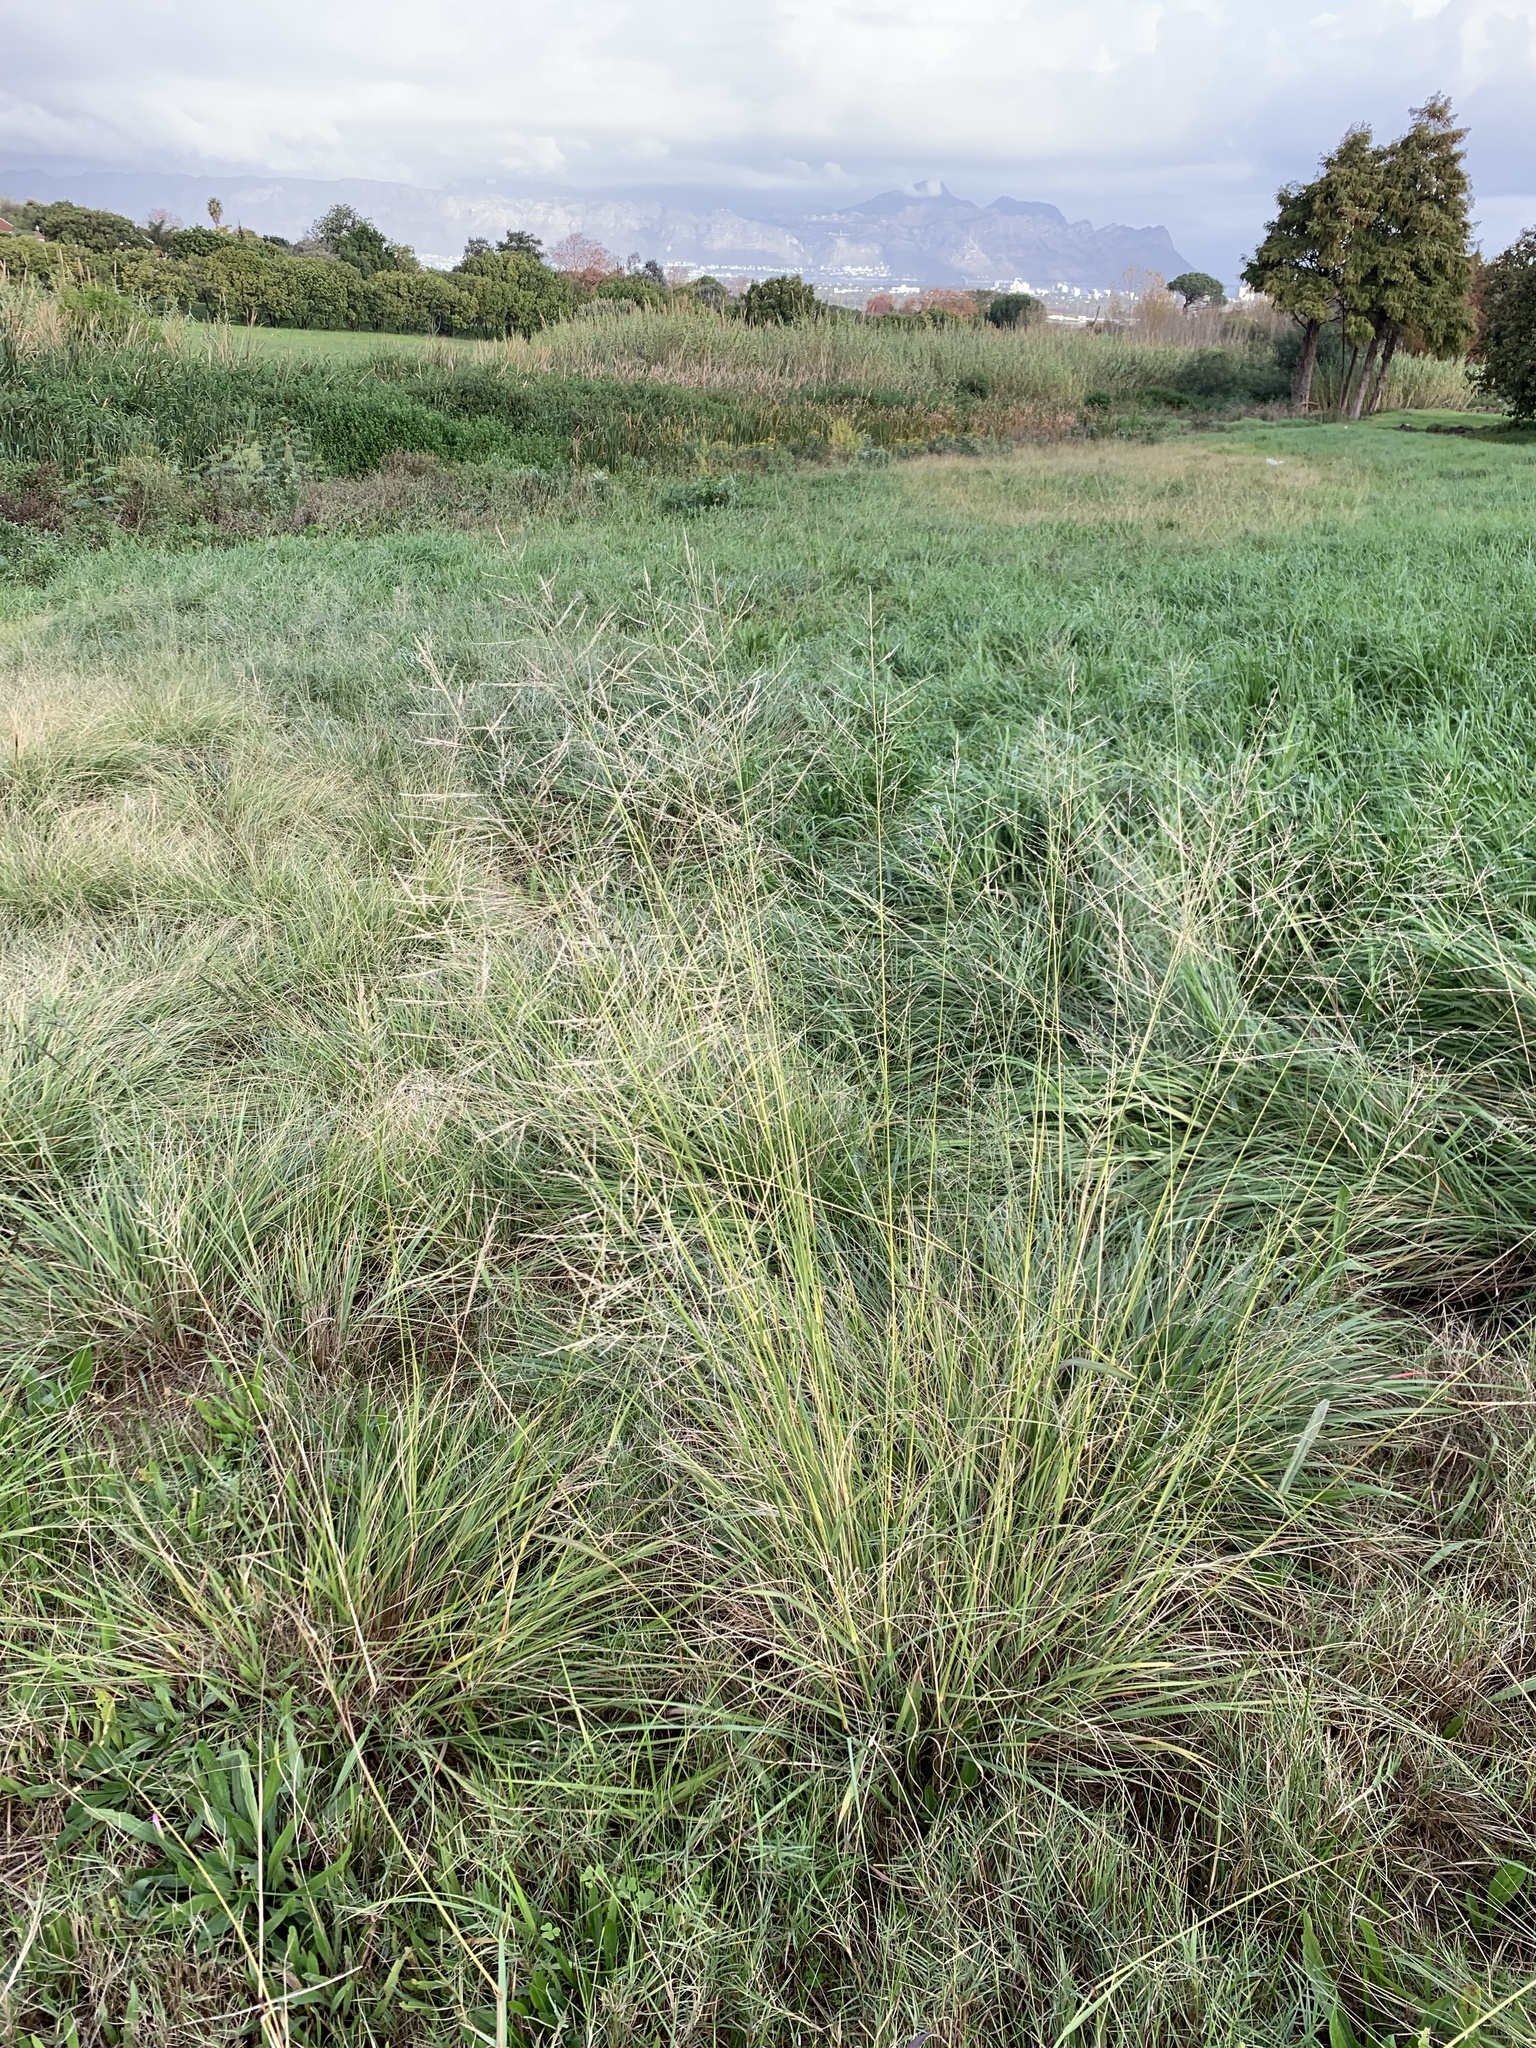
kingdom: Plantae
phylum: Tracheophyta
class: Liliopsida
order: Poales
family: Poaceae
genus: Eragrostis
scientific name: Eragrostis curvula
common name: African love-grass
